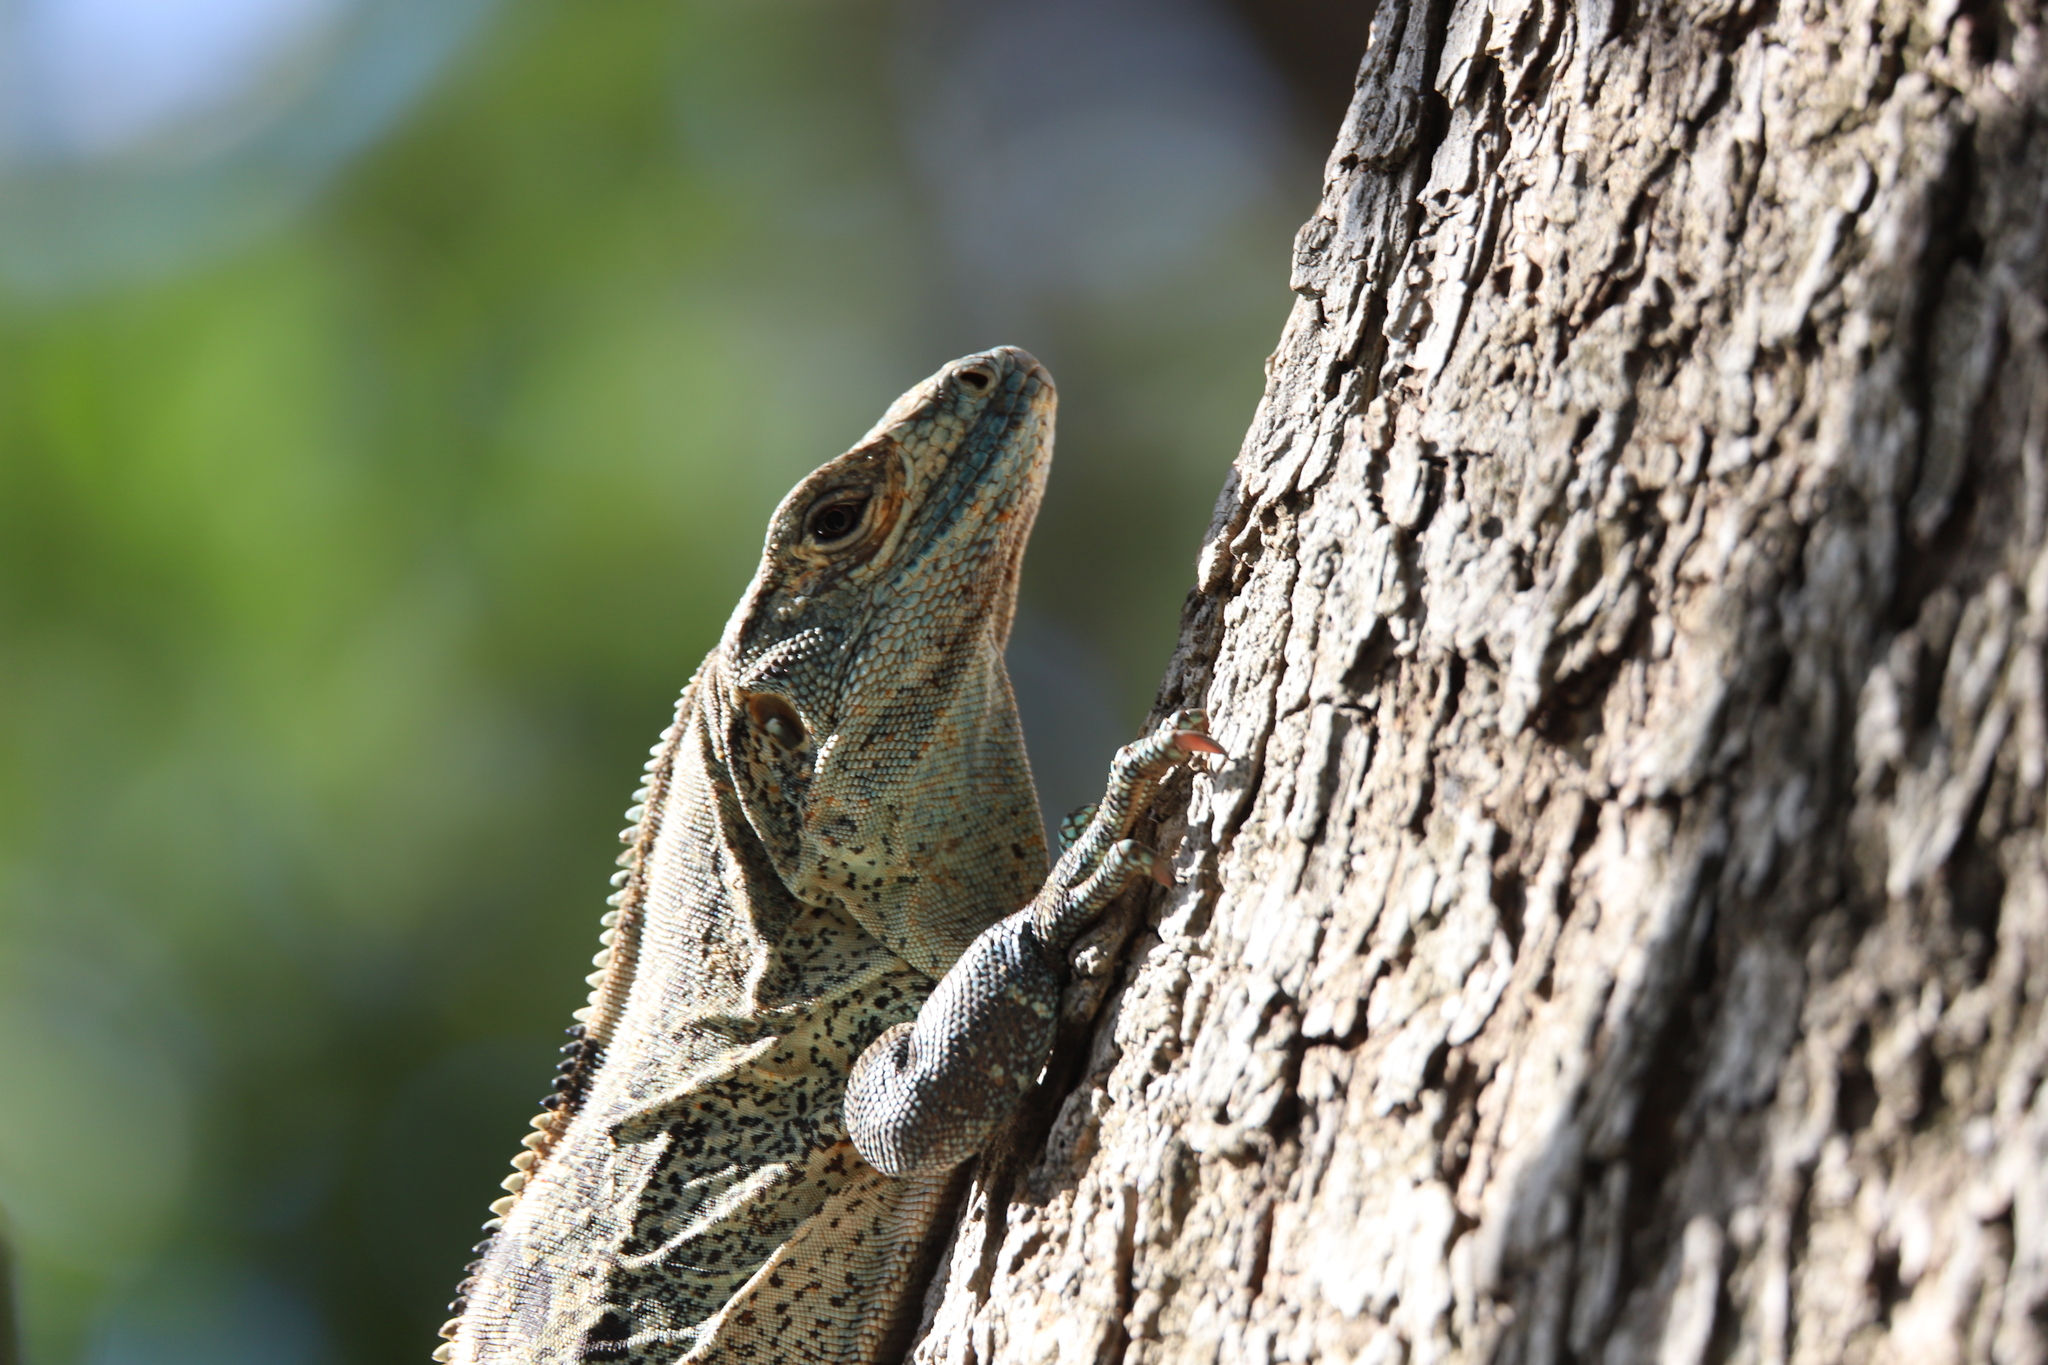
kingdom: Animalia
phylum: Chordata
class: Squamata
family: Iguanidae
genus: Ctenosaura
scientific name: Ctenosaura similis
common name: Black spiny-tailed iguana
